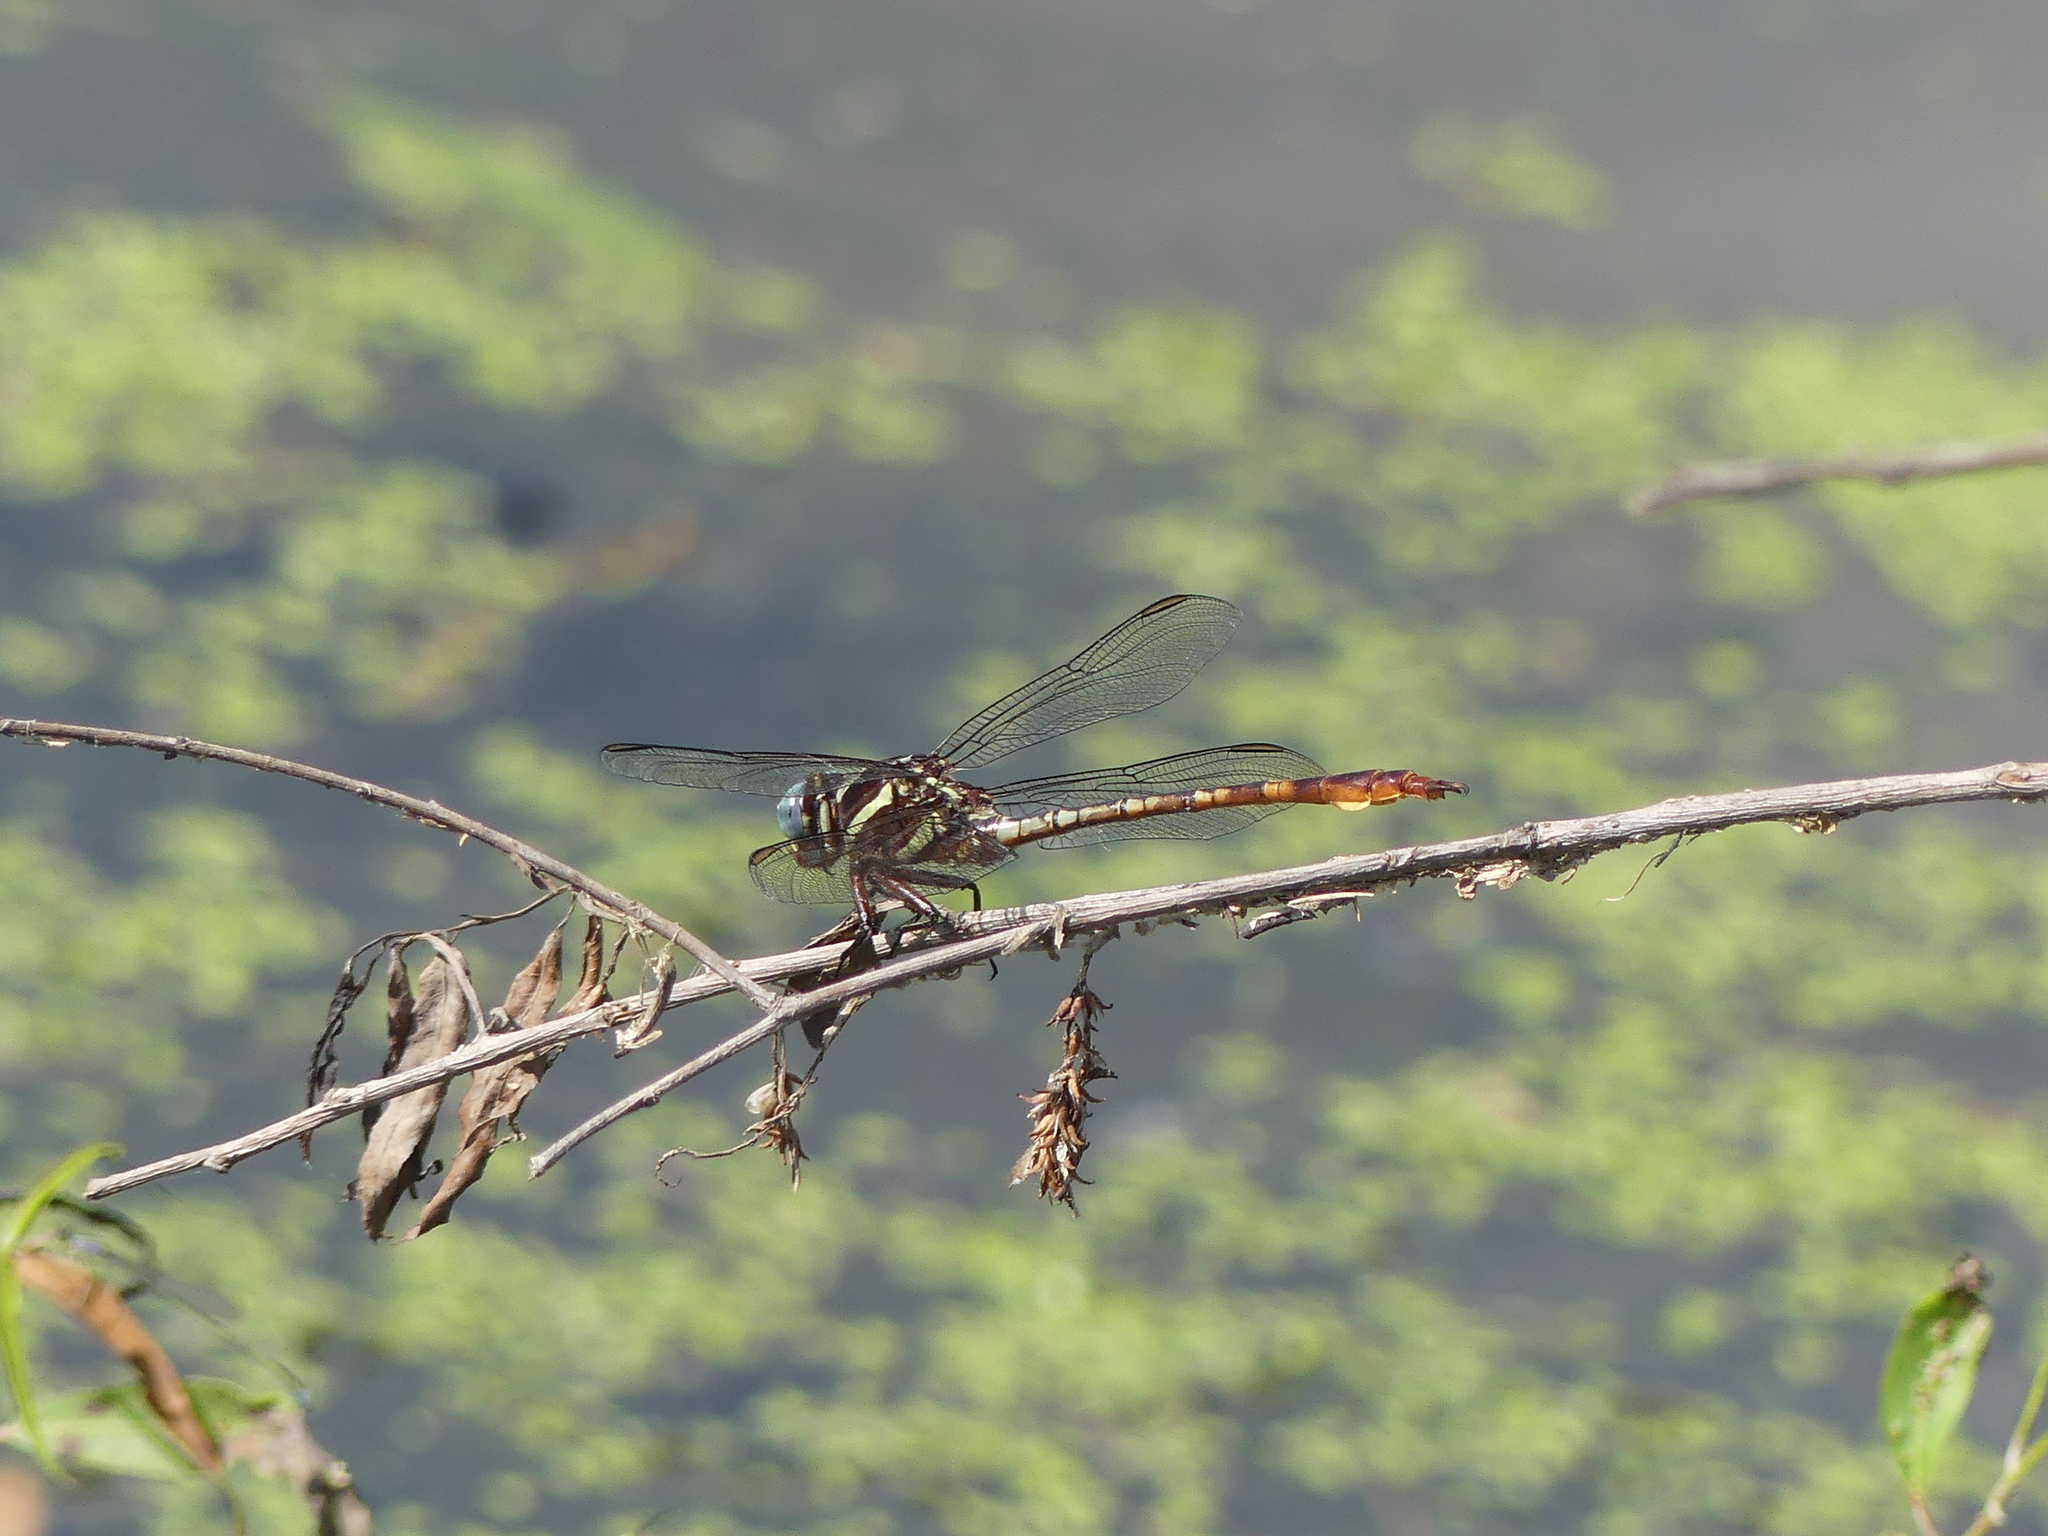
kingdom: Animalia
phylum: Arthropoda
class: Insecta
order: Odonata
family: Gomphidae
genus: Aphylla
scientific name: Aphylla williamsoni
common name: Two-striped forceptail
